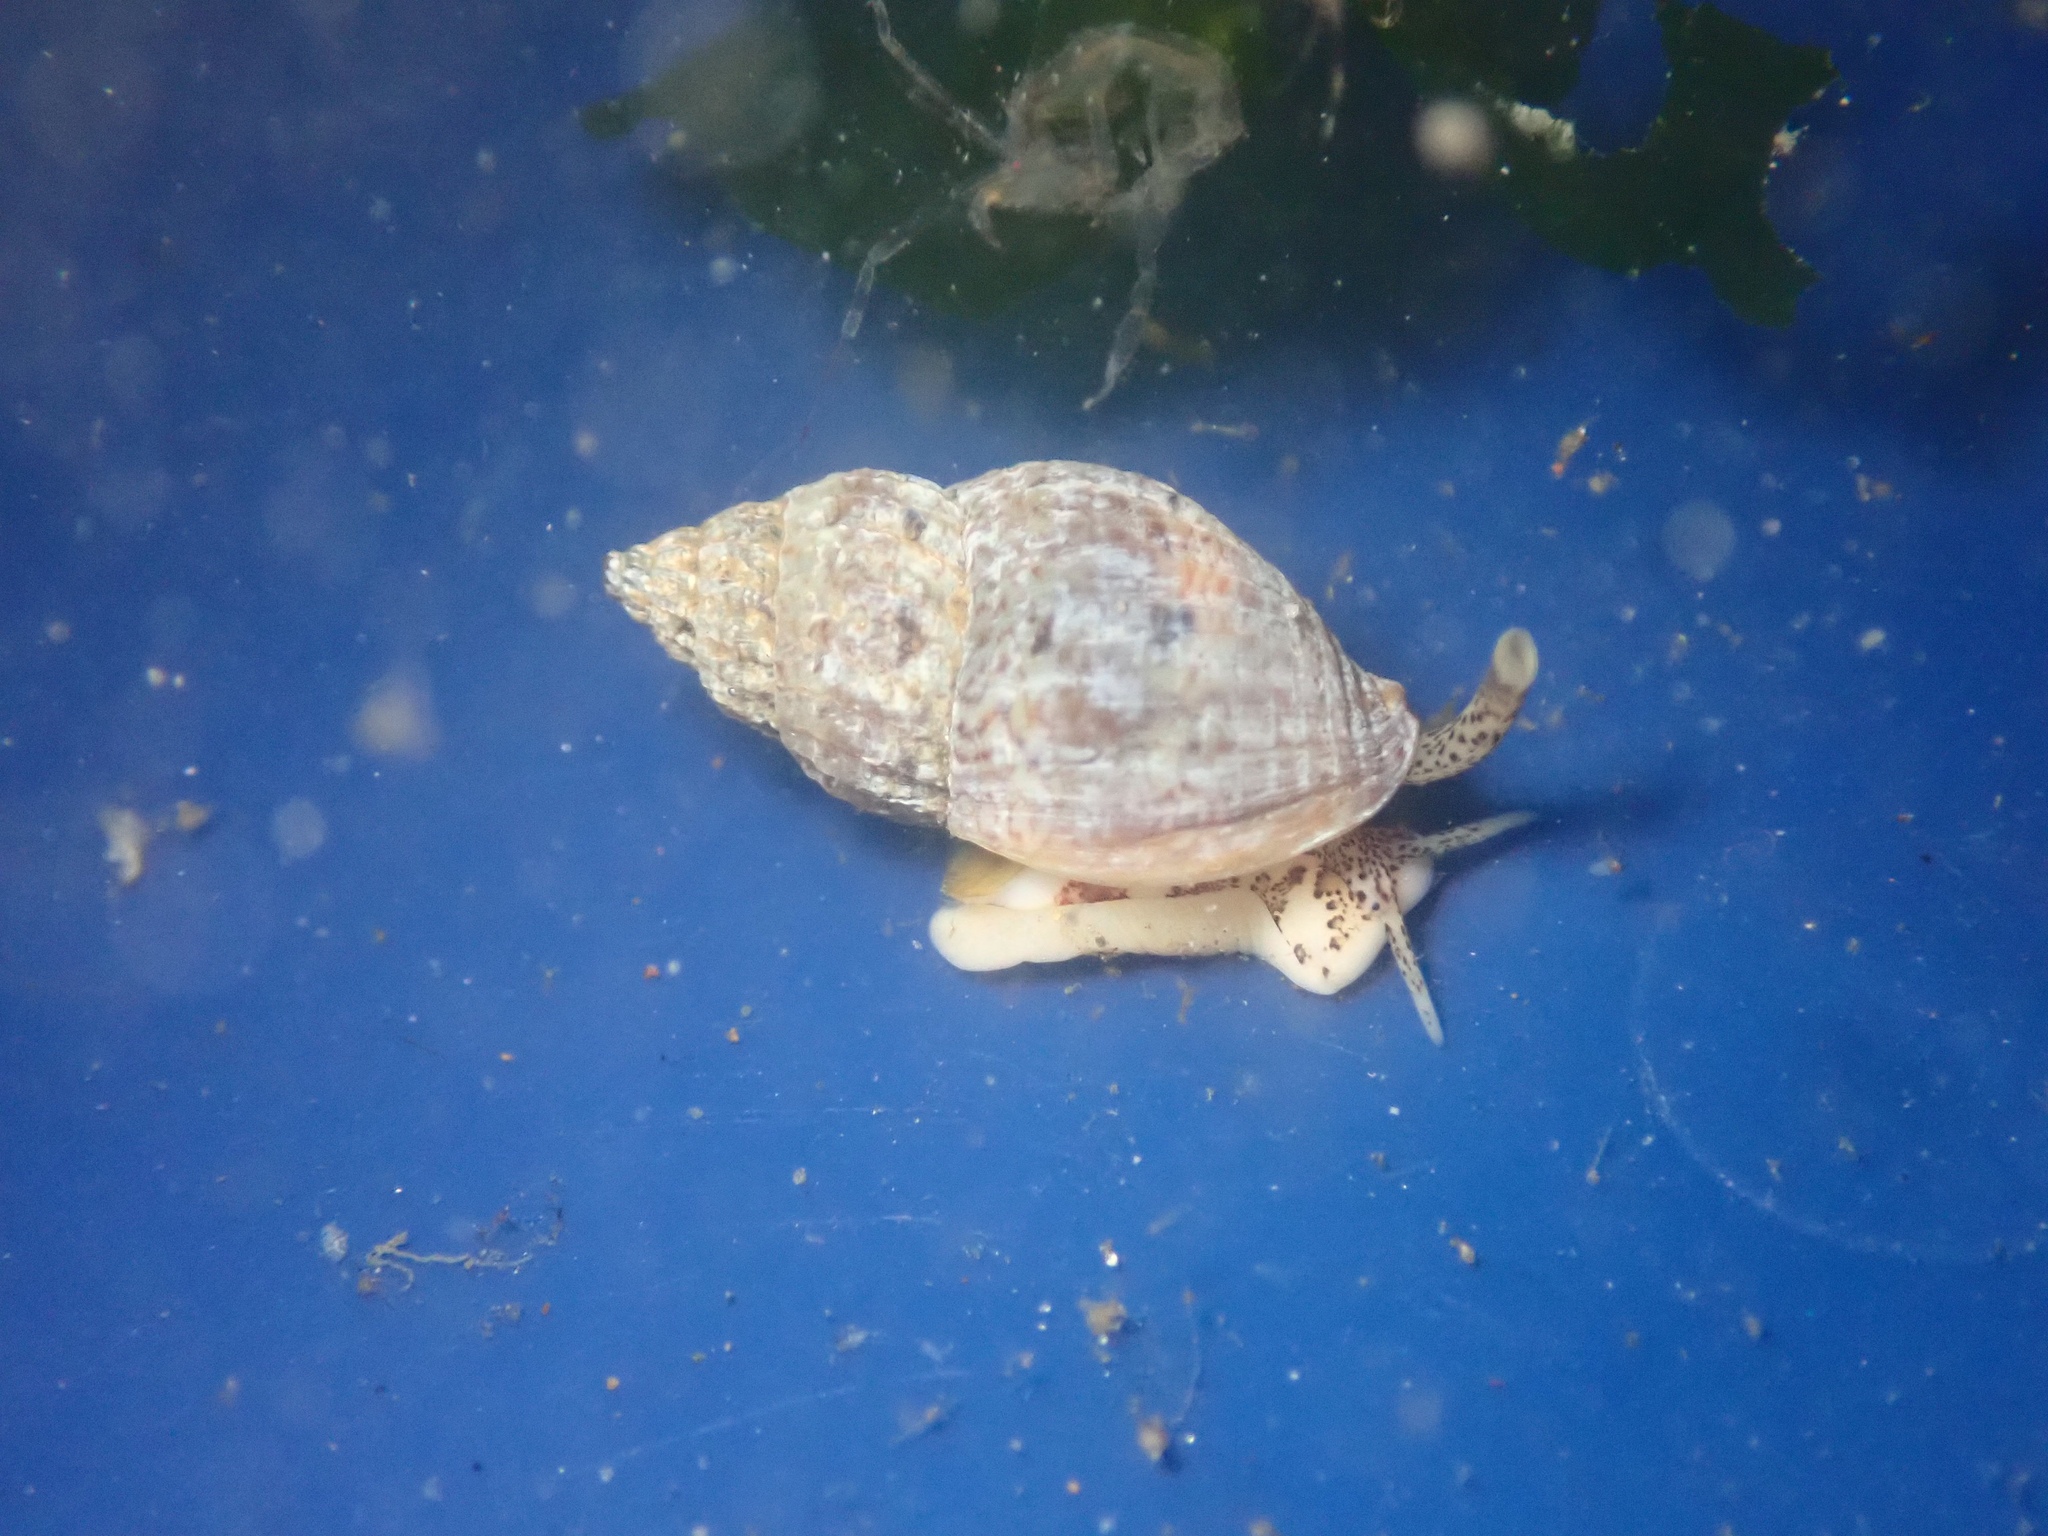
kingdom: Animalia
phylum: Mollusca
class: Gastropoda
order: Neogastropoda
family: Columbellidae
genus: Amphissa
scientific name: Amphissa columbiana
